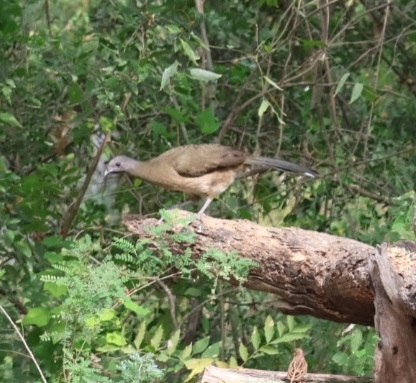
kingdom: Animalia
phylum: Chordata
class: Aves
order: Galliformes
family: Cracidae
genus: Ortalis
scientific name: Ortalis vetula
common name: Plain chachalaca
